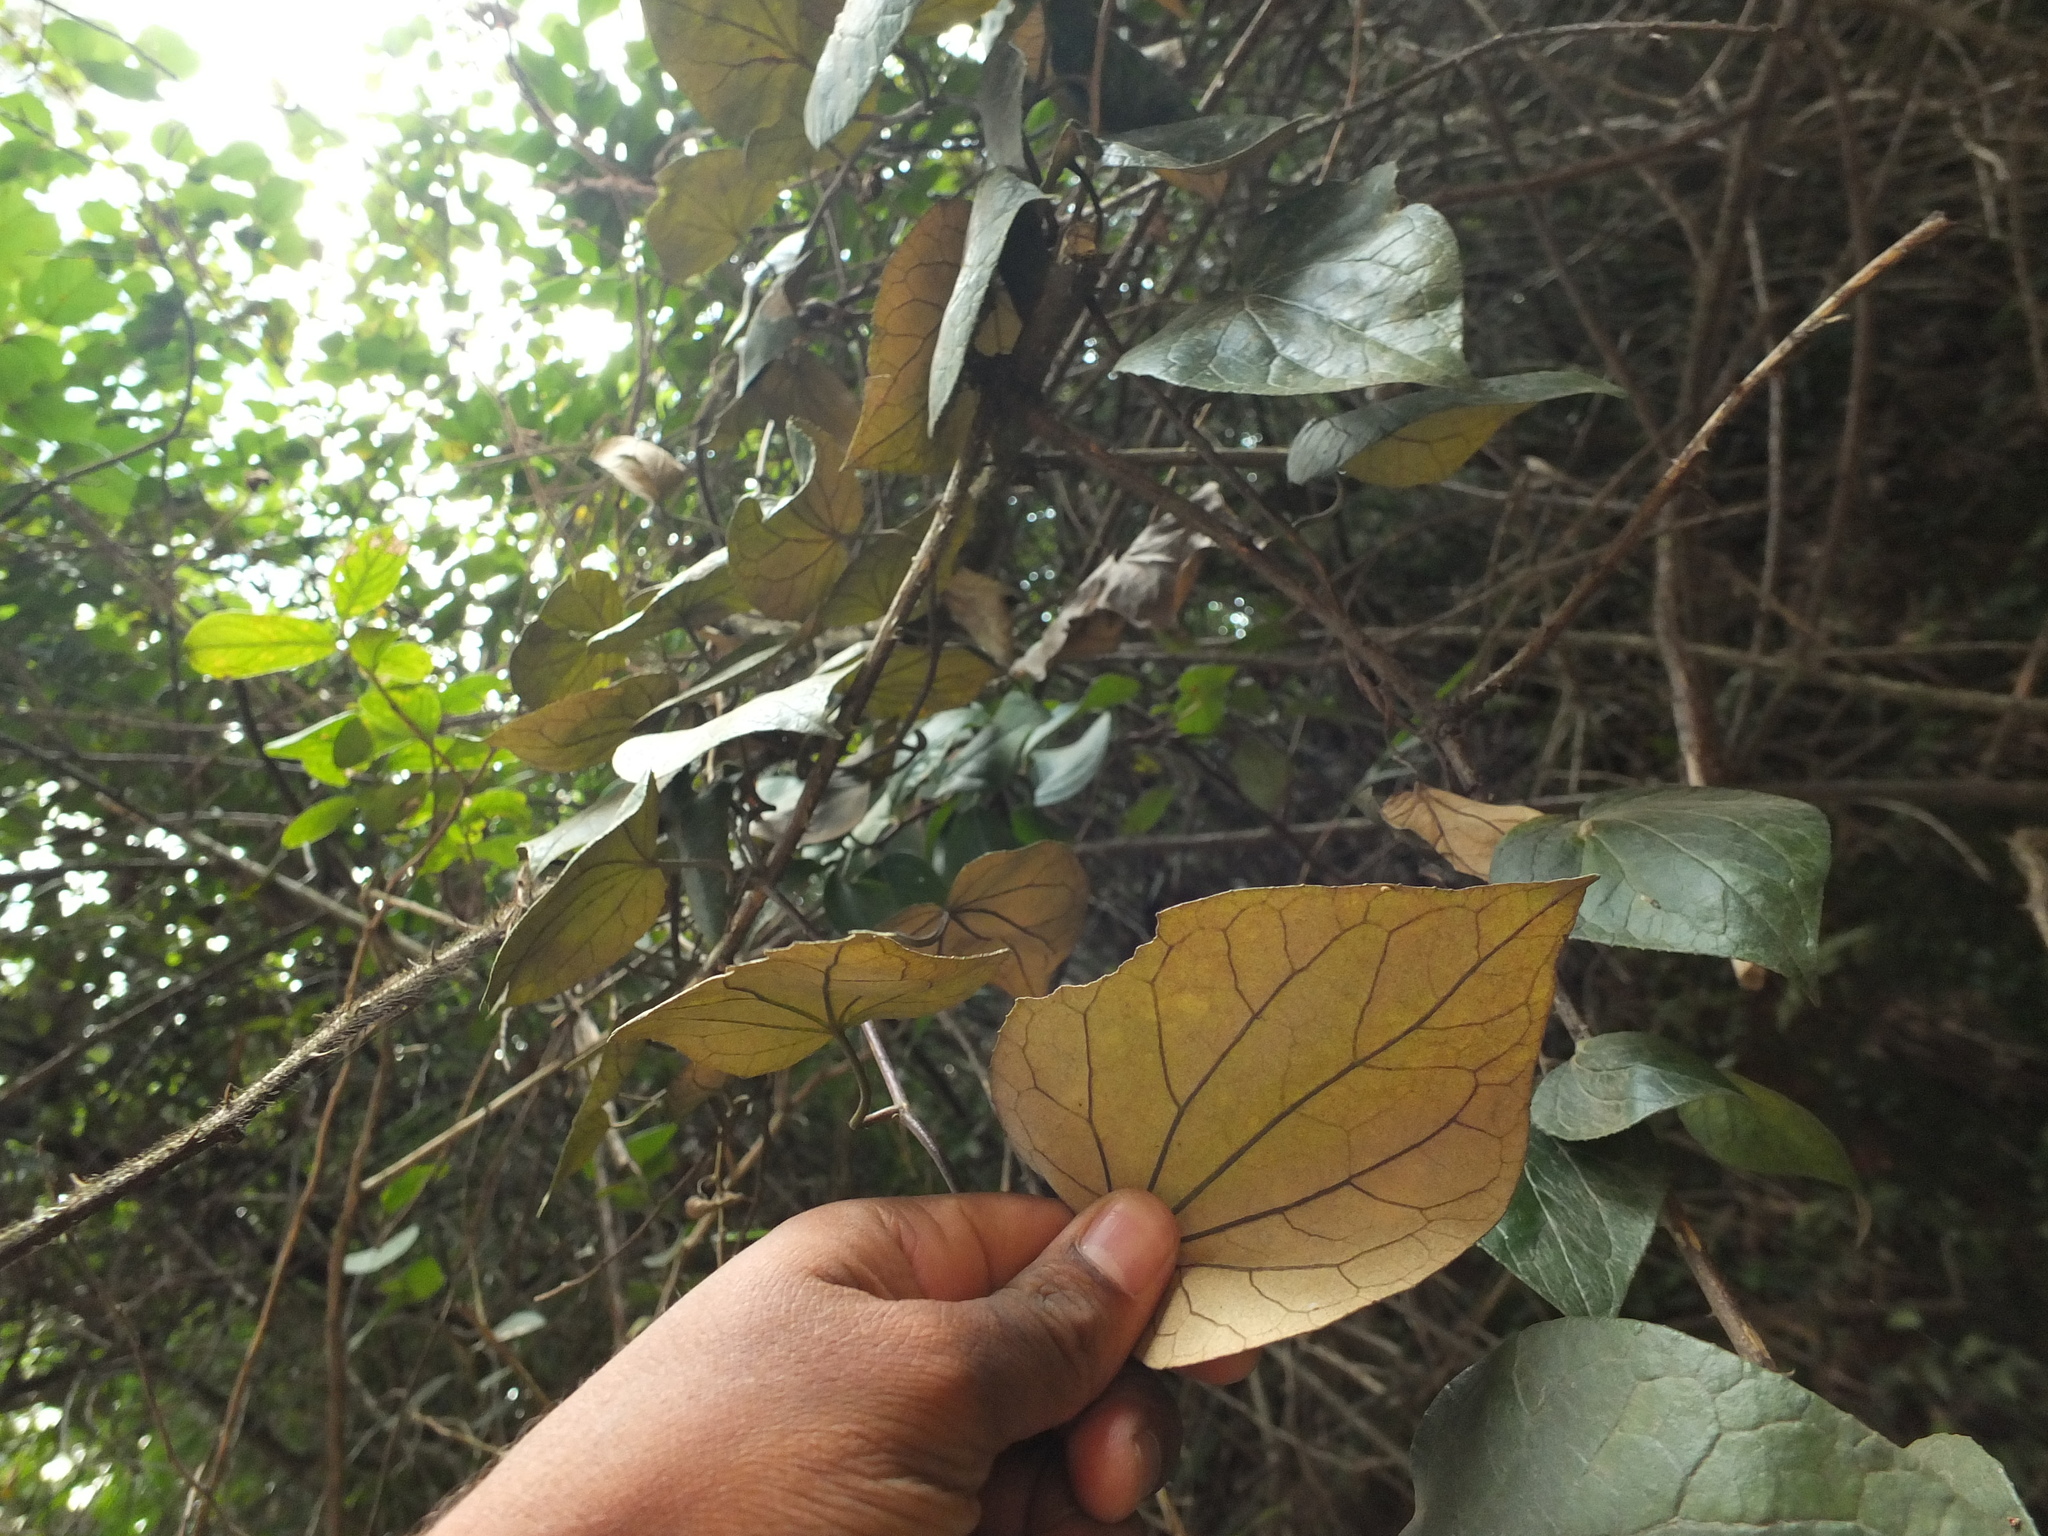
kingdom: Plantae
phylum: Tracheophyta
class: Magnoliopsida
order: Asterales
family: Asteraceae
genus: Cissampelopsis
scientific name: Cissampelopsis corymbosa
